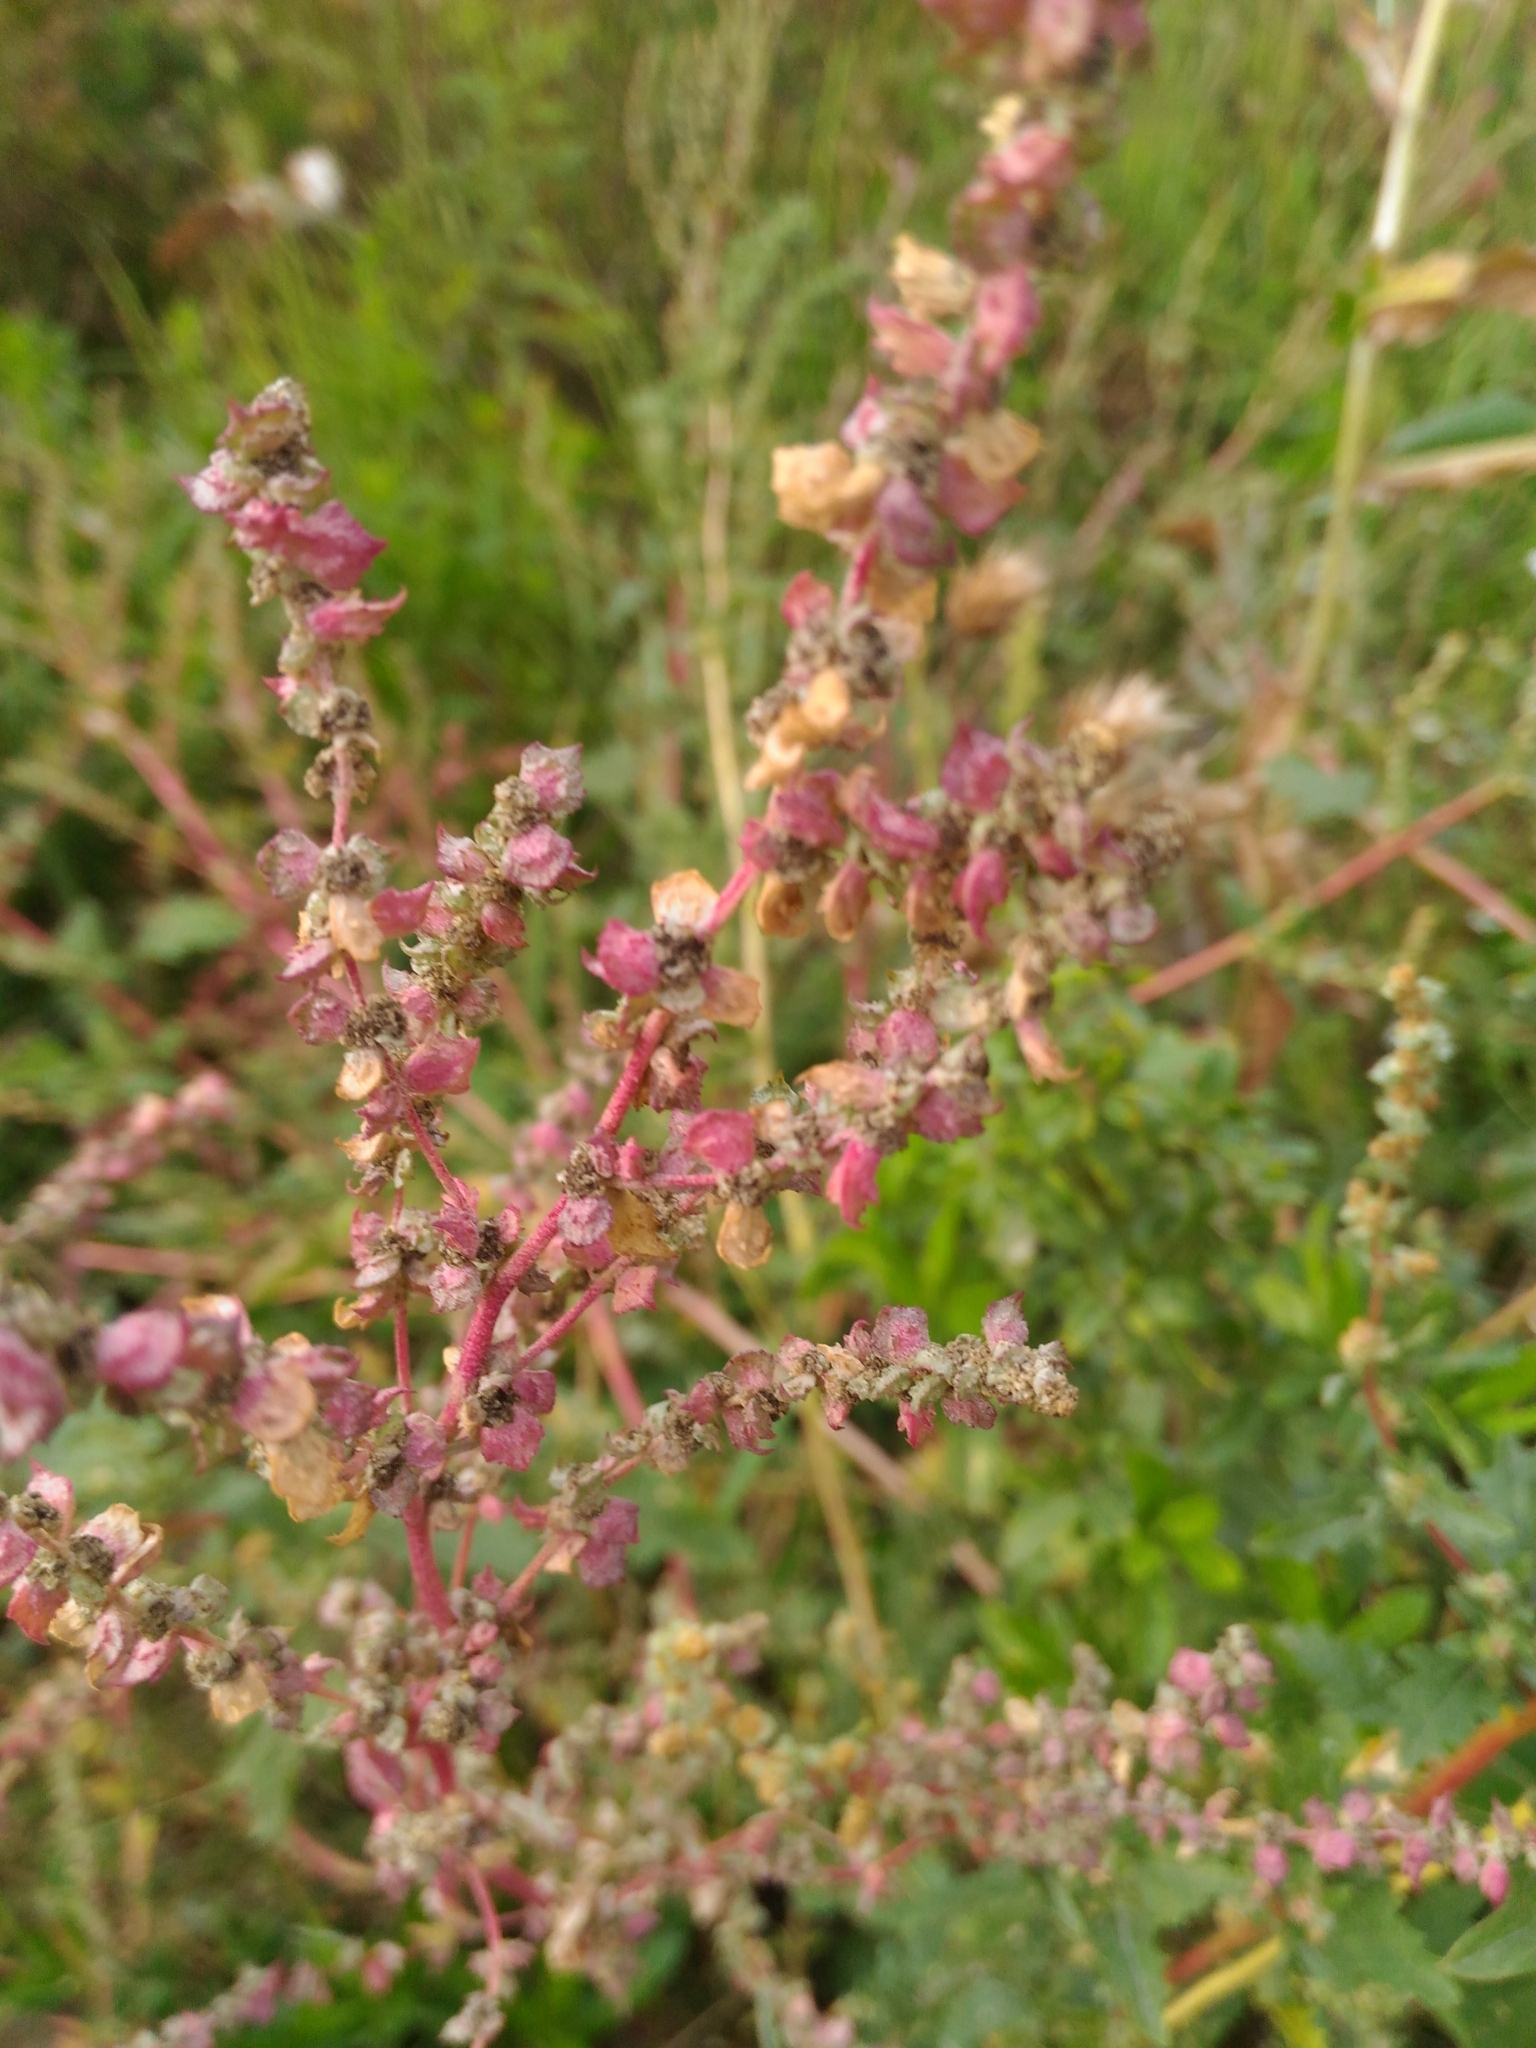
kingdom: Plantae
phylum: Tracheophyta
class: Magnoliopsida
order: Caryophyllales
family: Amaranthaceae
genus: Atriplex
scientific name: Atriplex tatarica
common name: Tatarian orache
